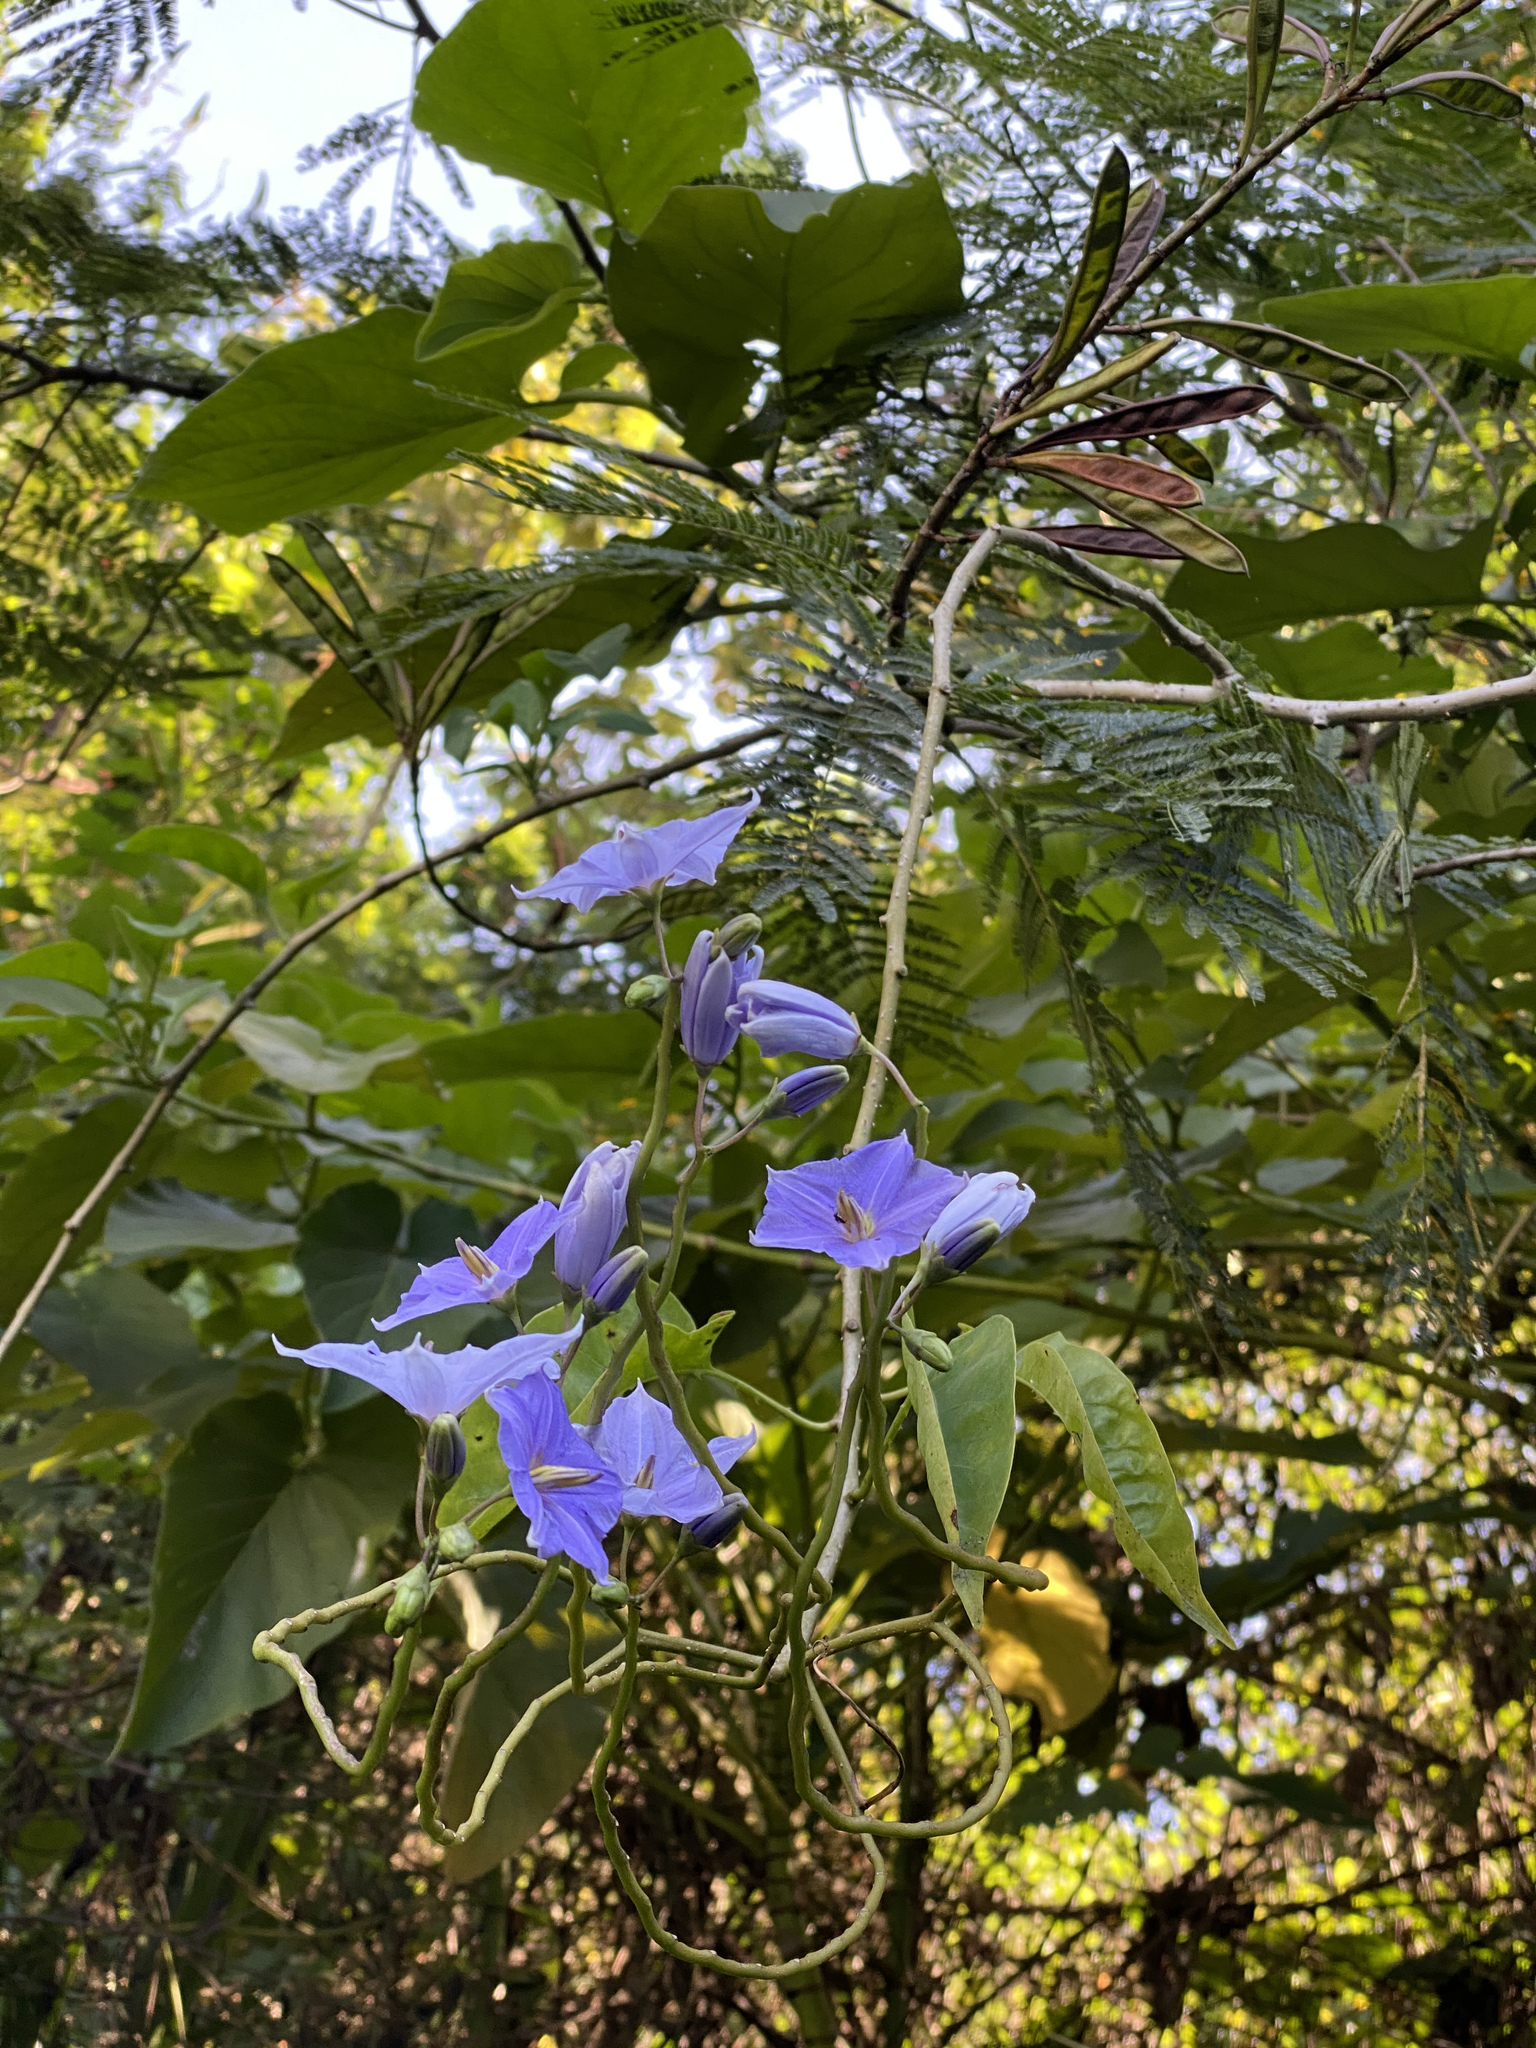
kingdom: Plantae
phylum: Tracheophyta
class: Magnoliopsida
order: Solanales
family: Solanaceae
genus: Solanum
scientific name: Solanum wendlandii
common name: Costa rican nightshade
